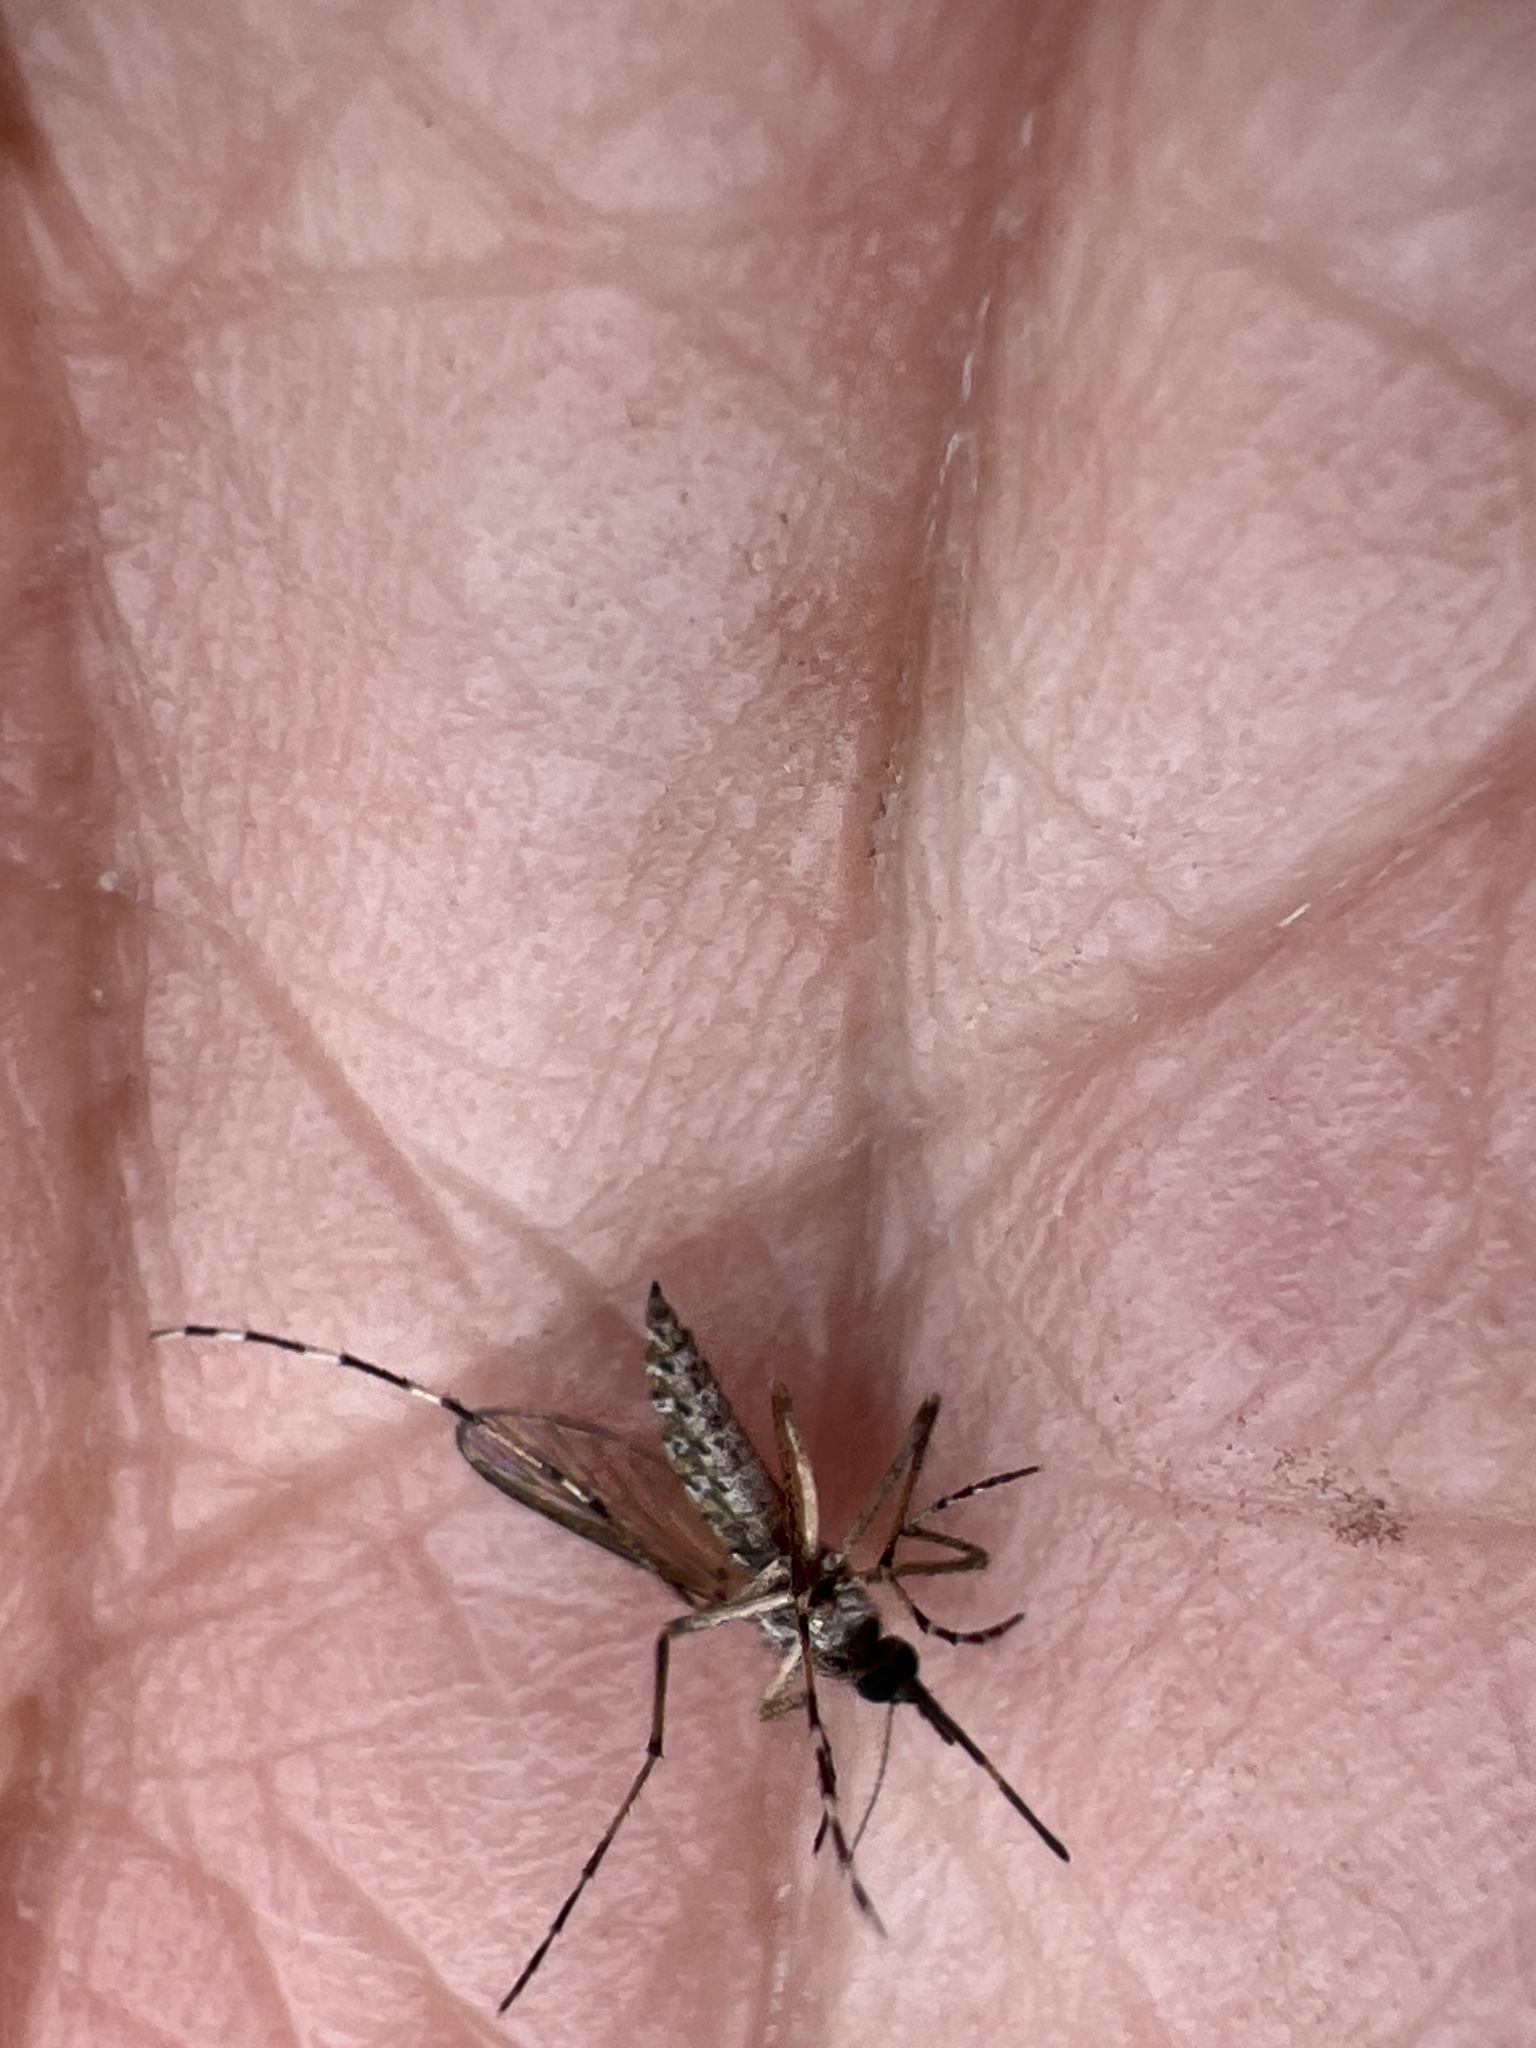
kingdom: Animalia
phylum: Arthropoda
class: Insecta
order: Diptera
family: Culicidae
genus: Aedes
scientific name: Aedes taeniorhynchus
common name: Black salt marsh mosquito
